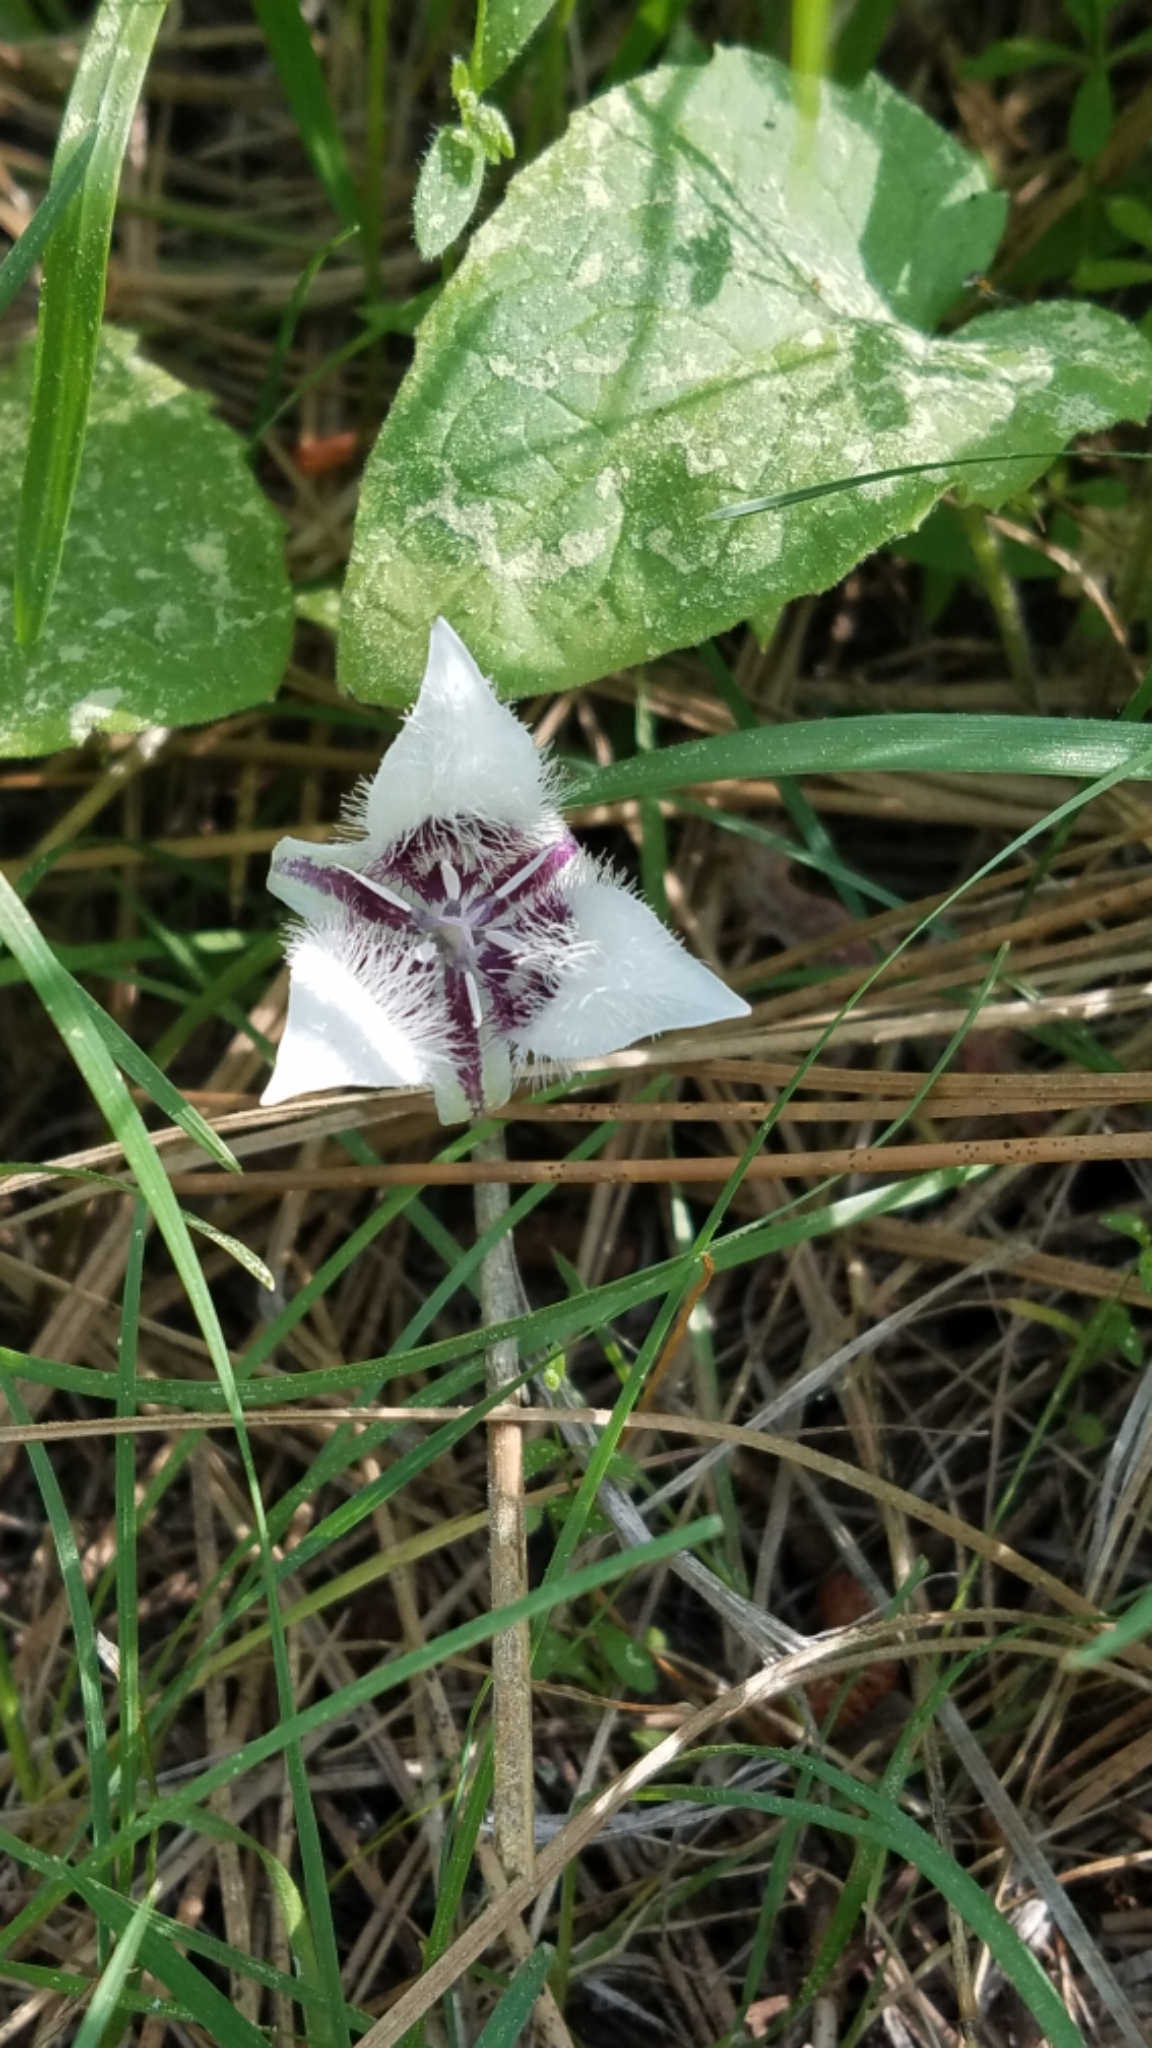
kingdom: Plantae
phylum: Tracheophyta
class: Liliopsida
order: Liliales
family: Liliaceae
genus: Calochortus
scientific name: Calochortus elegans
